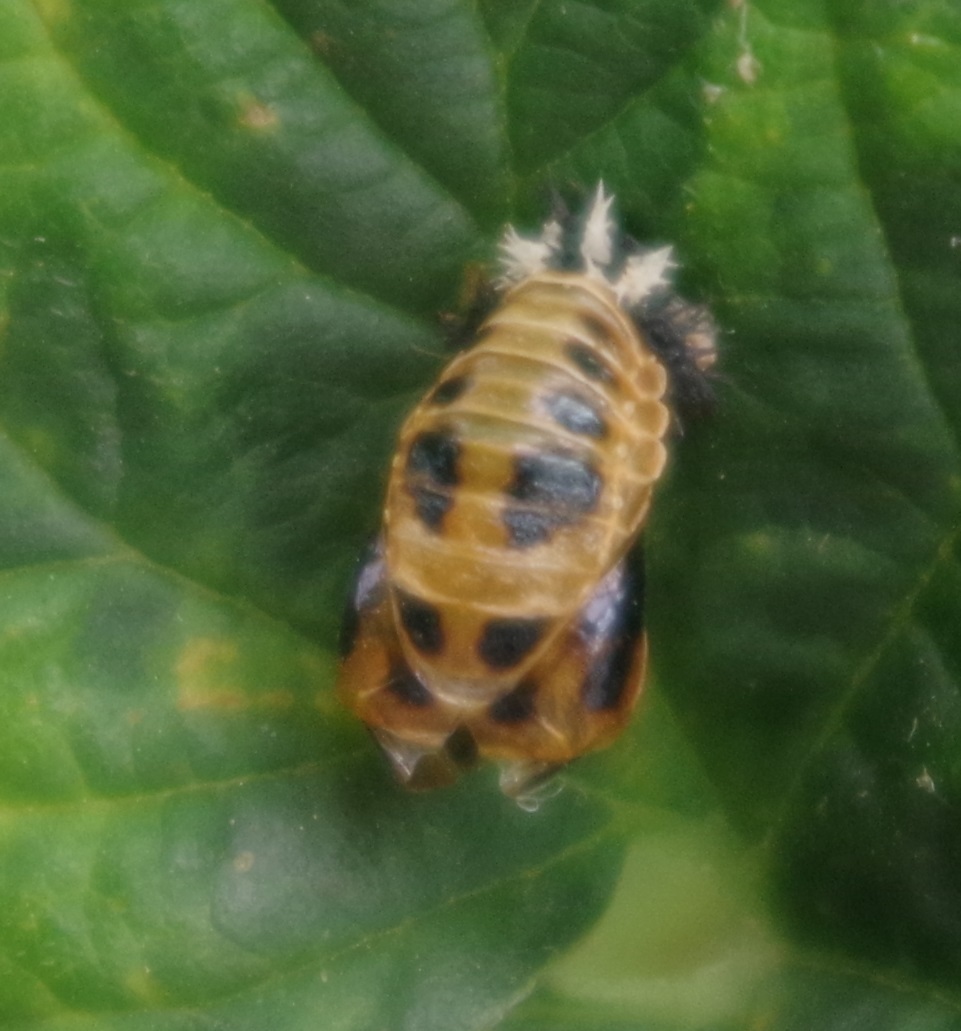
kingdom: Animalia
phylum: Arthropoda
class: Insecta
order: Coleoptera
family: Coccinellidae
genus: Harmonia
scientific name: Harmonia axyridis
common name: Harlequin ladybird
